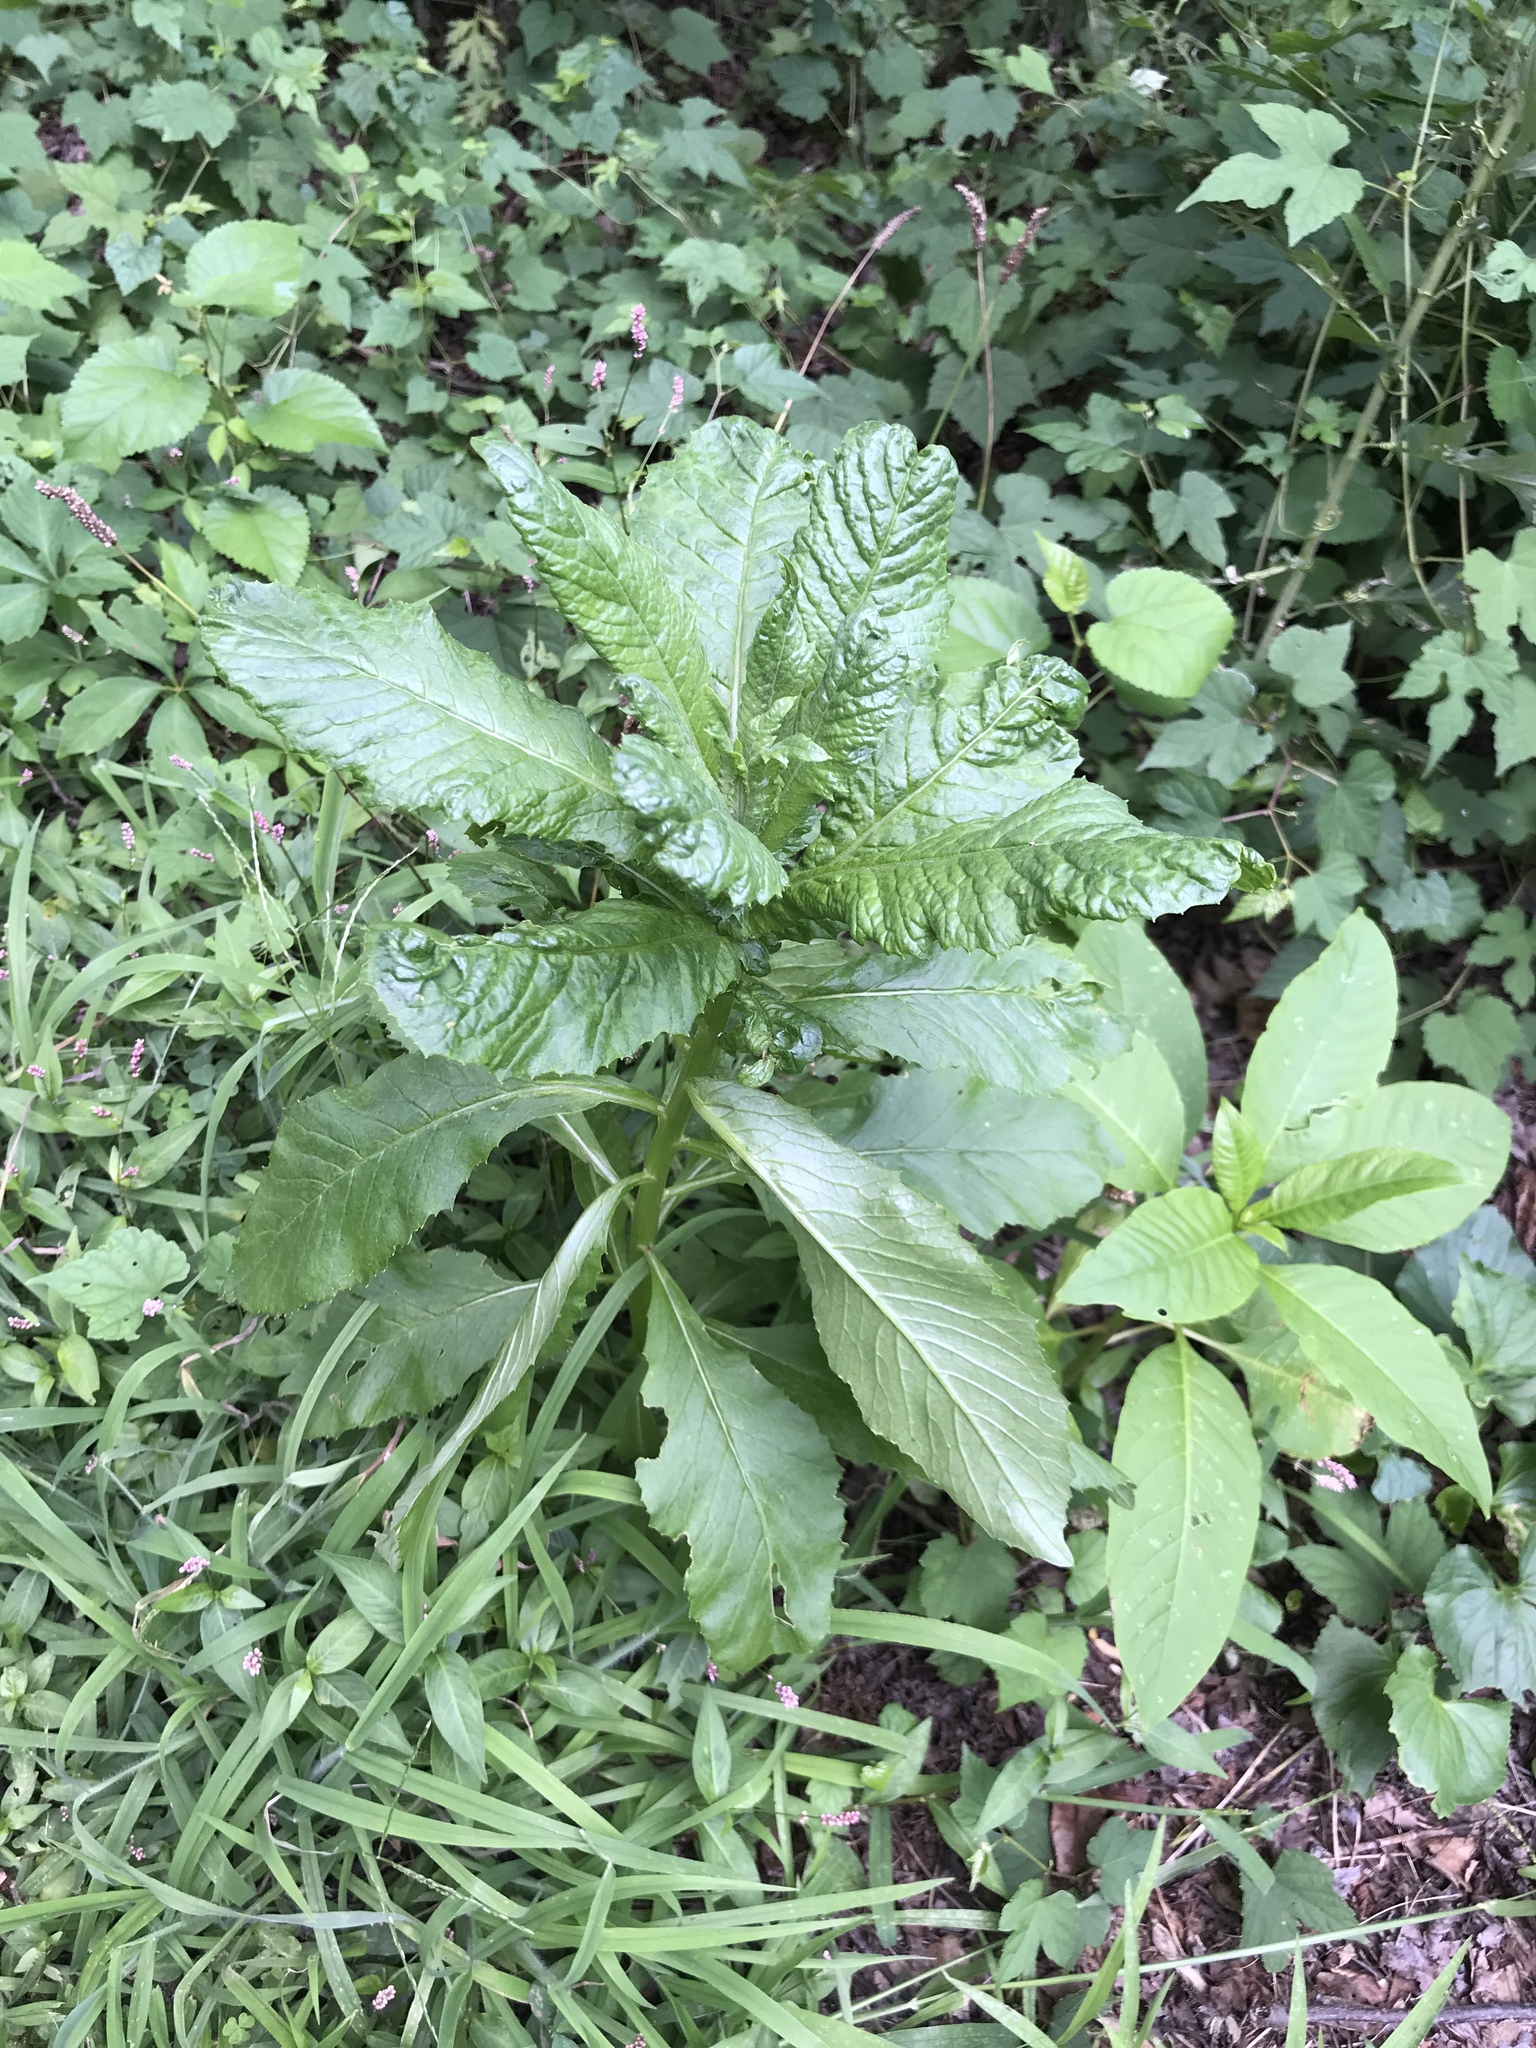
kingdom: Plantae
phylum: Tracheophyta
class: Magnoliopsida
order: Asterales
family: Asteraceae
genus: Erechtites
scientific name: Erechtites hieraciifolius
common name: American burnweed
